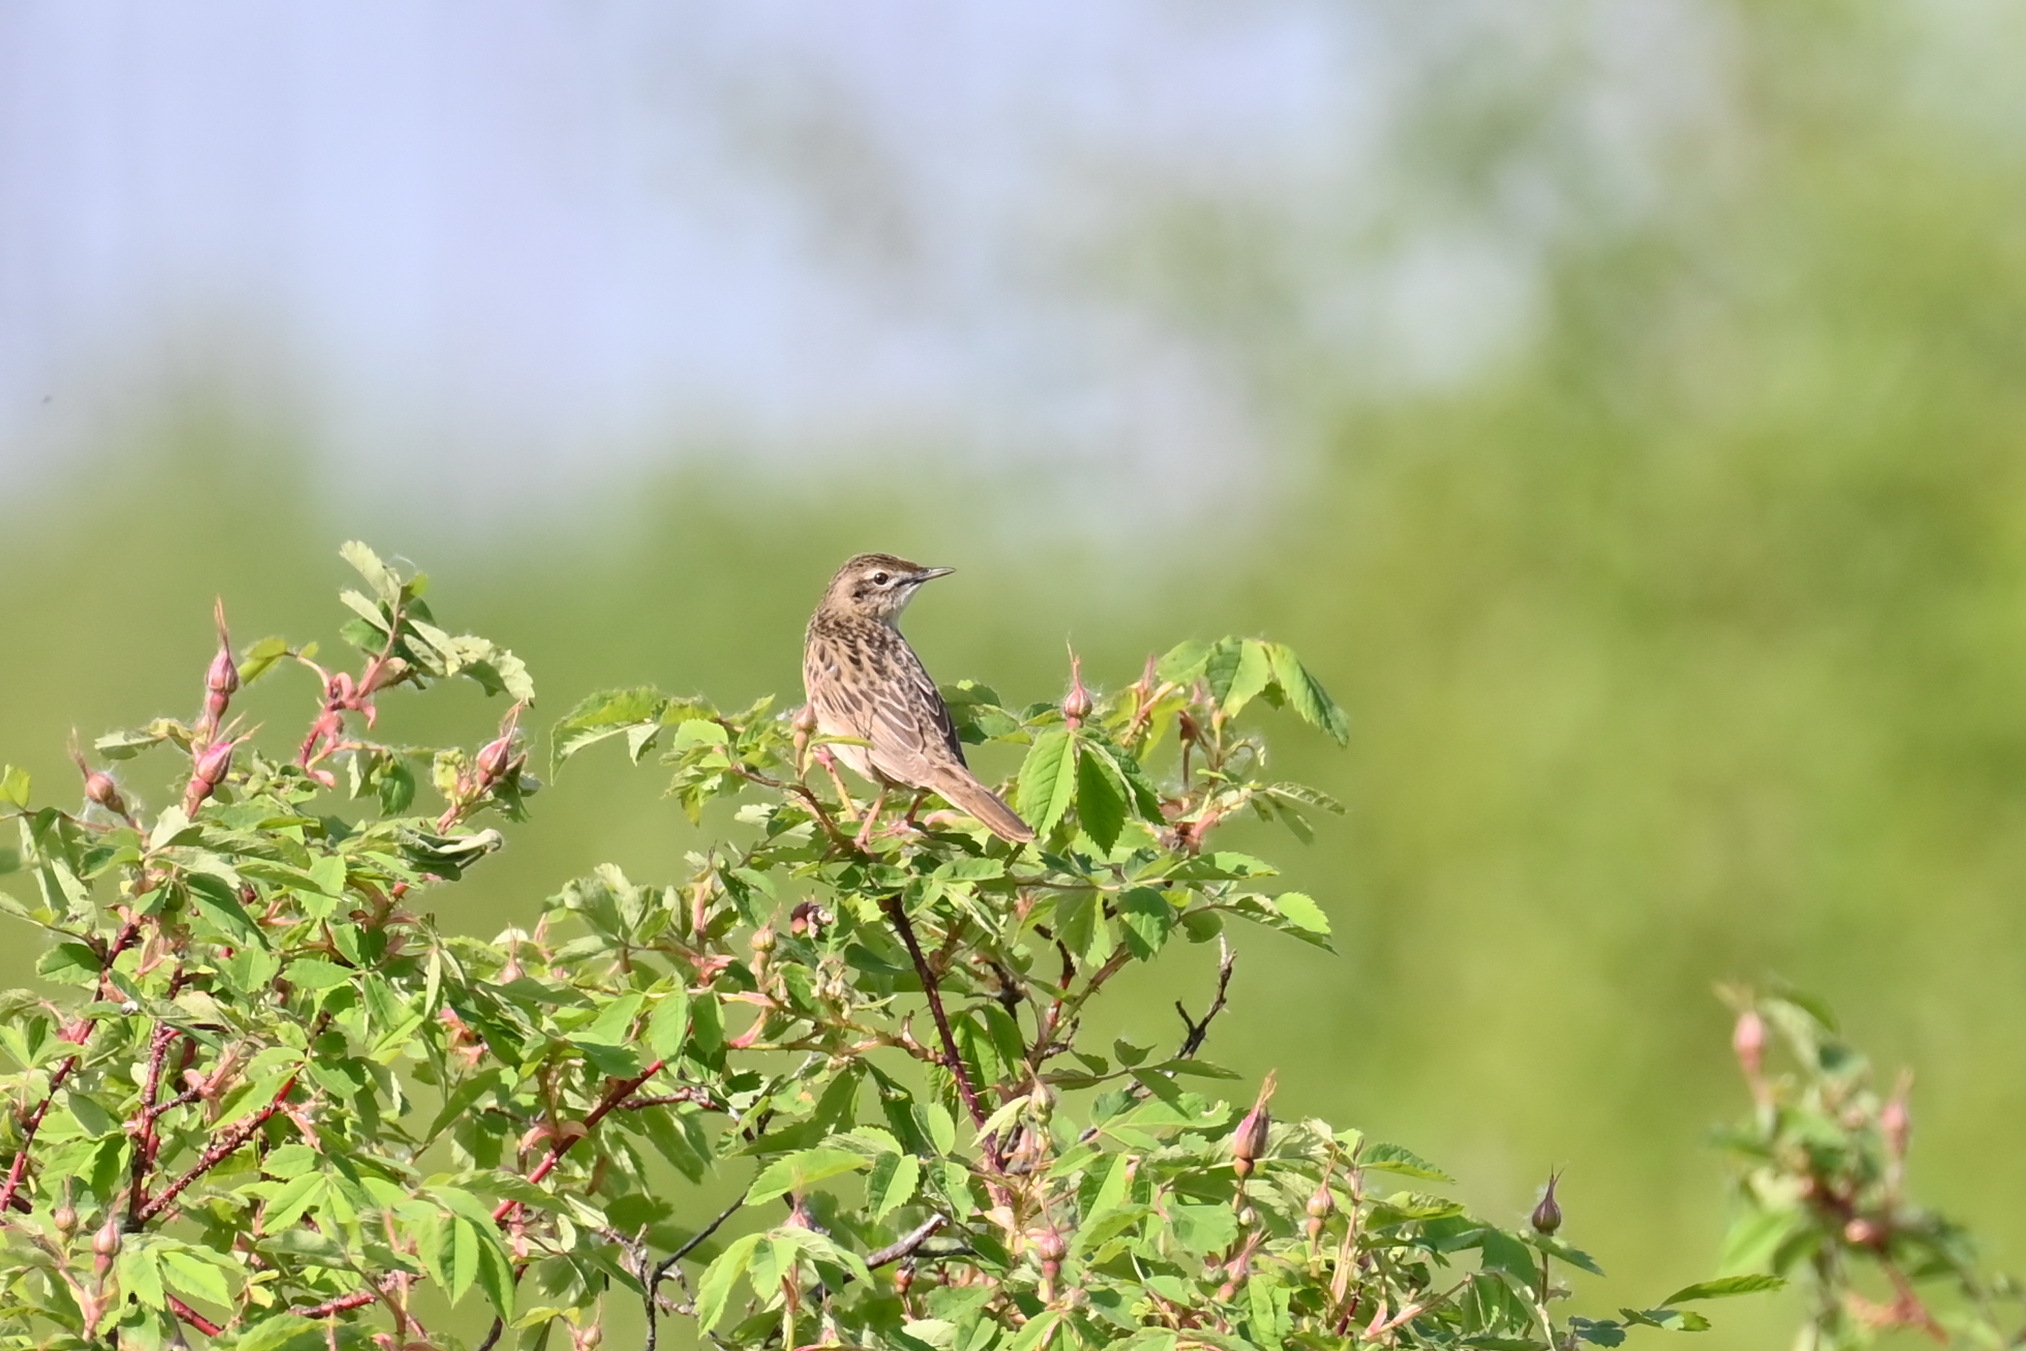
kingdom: Animalia
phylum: Chordata
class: Aves
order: Passeriformes
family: Locustellidae
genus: Locustella
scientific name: Locustella naevia
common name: Common grasshopper warbler
